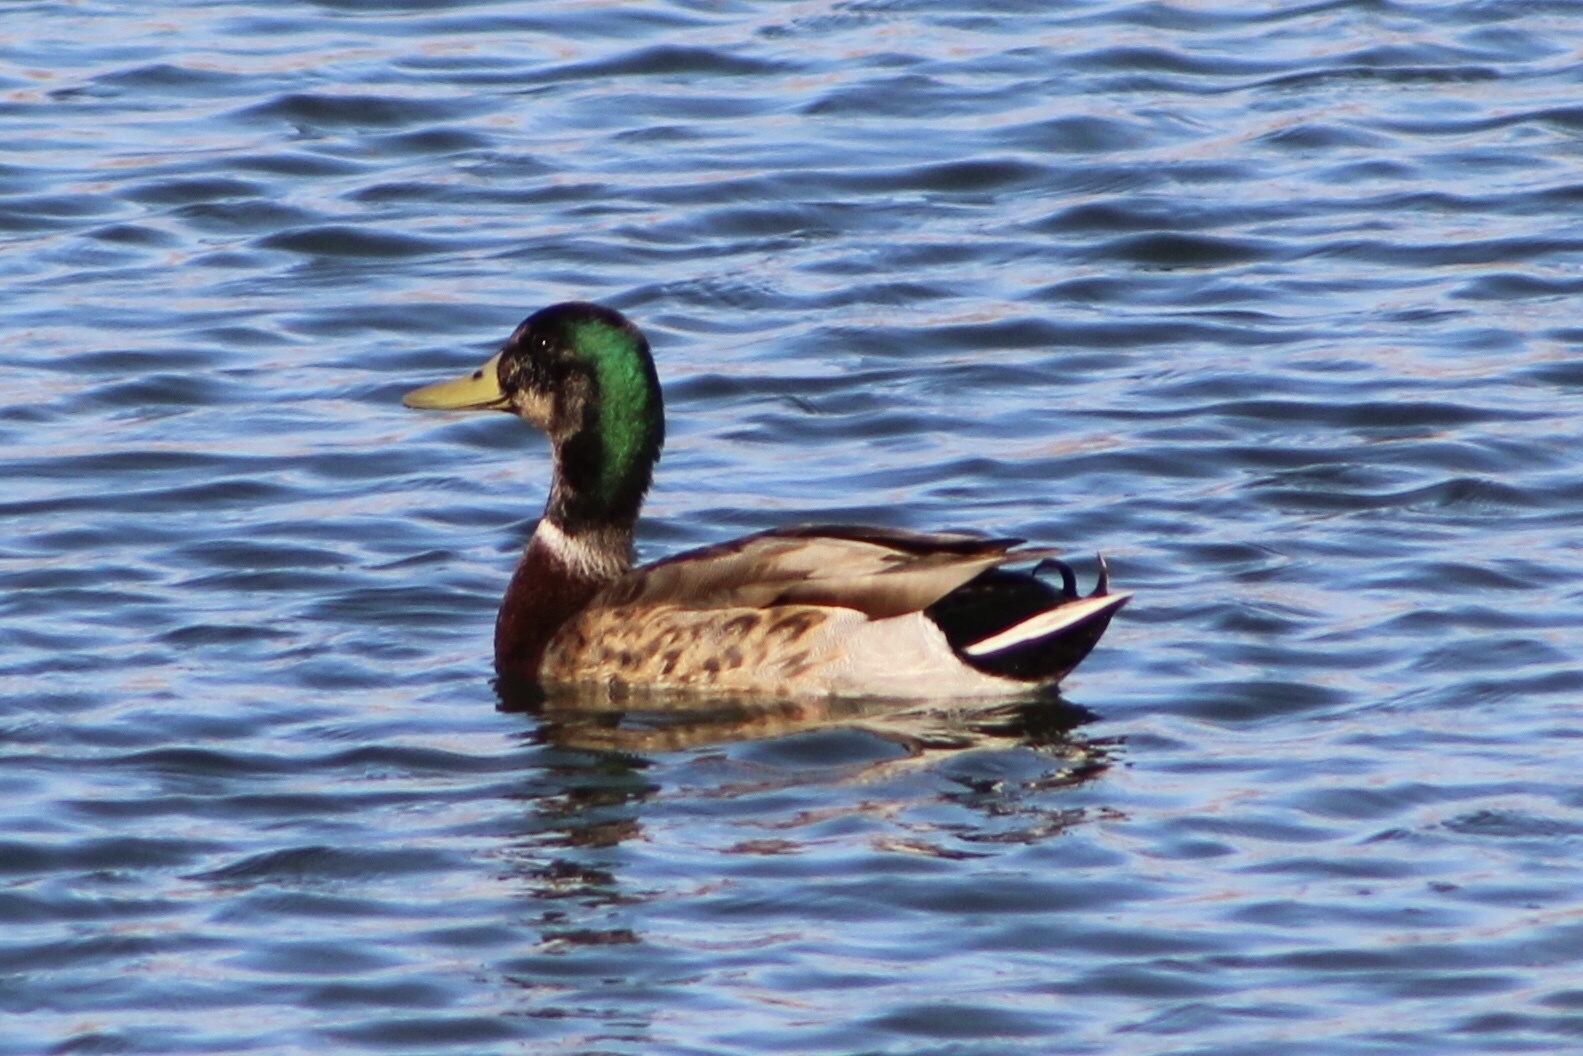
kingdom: Animalia
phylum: Chordata
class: Aves
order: Anseriformes
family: Anatidae
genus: Anas
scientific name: Anas
